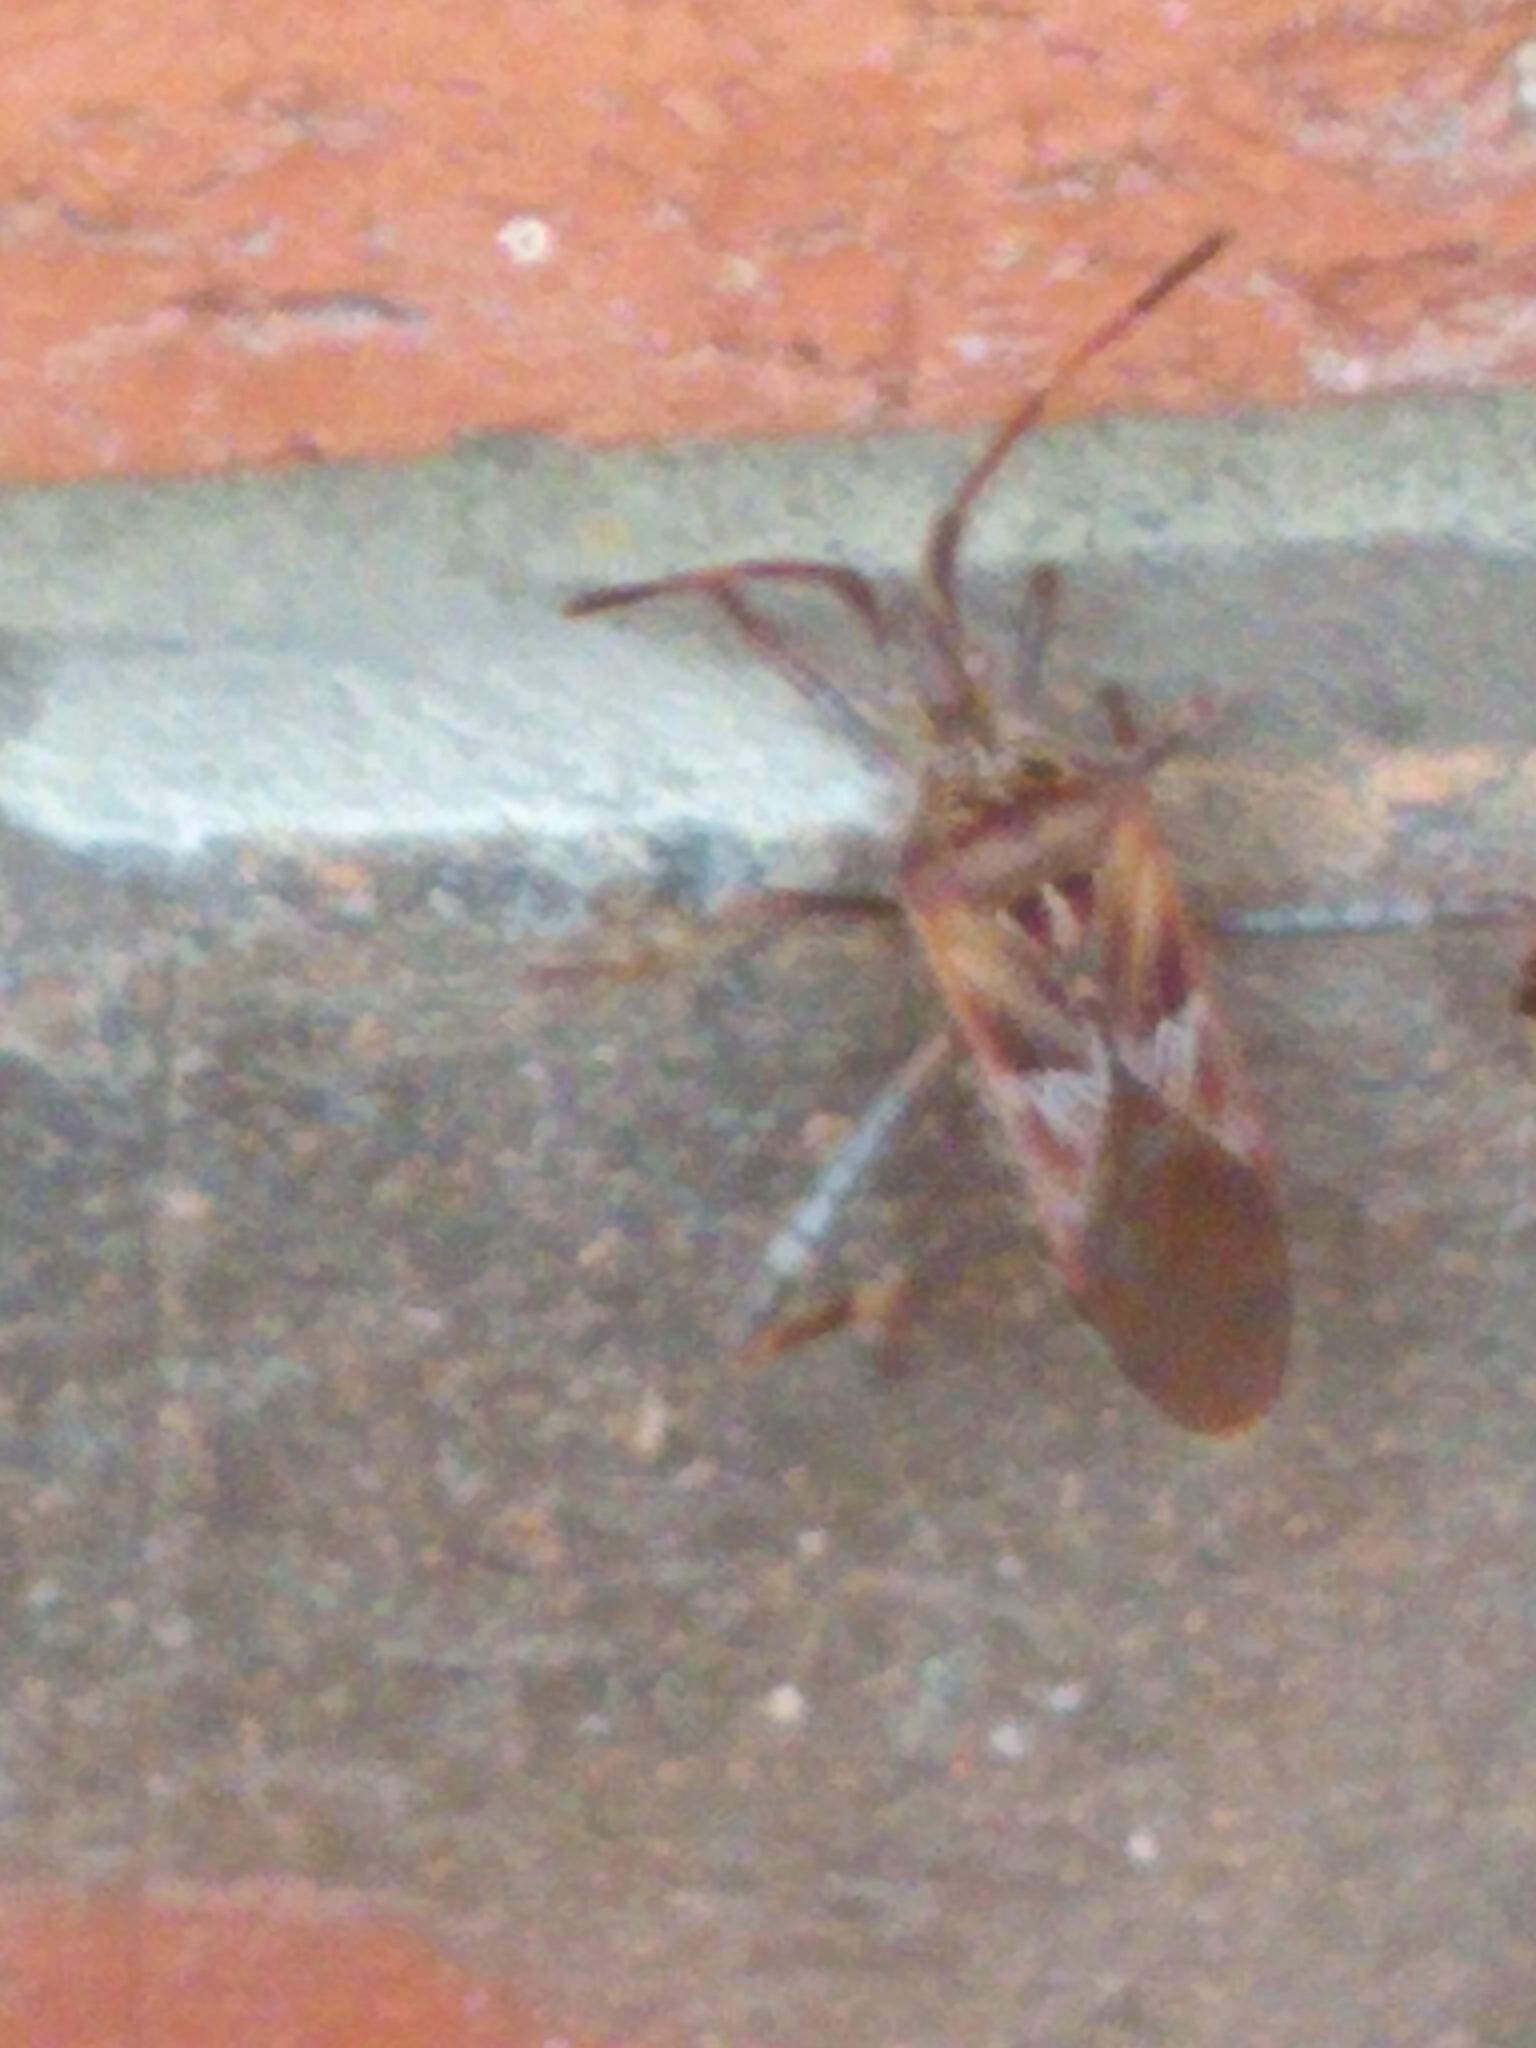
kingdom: Animalia
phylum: Arthropoda
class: Insecta
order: Hemiptera
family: Coreidae
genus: Leptoglossus
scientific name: Leptoglossus occidentalis
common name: Western conifer-seed bug
